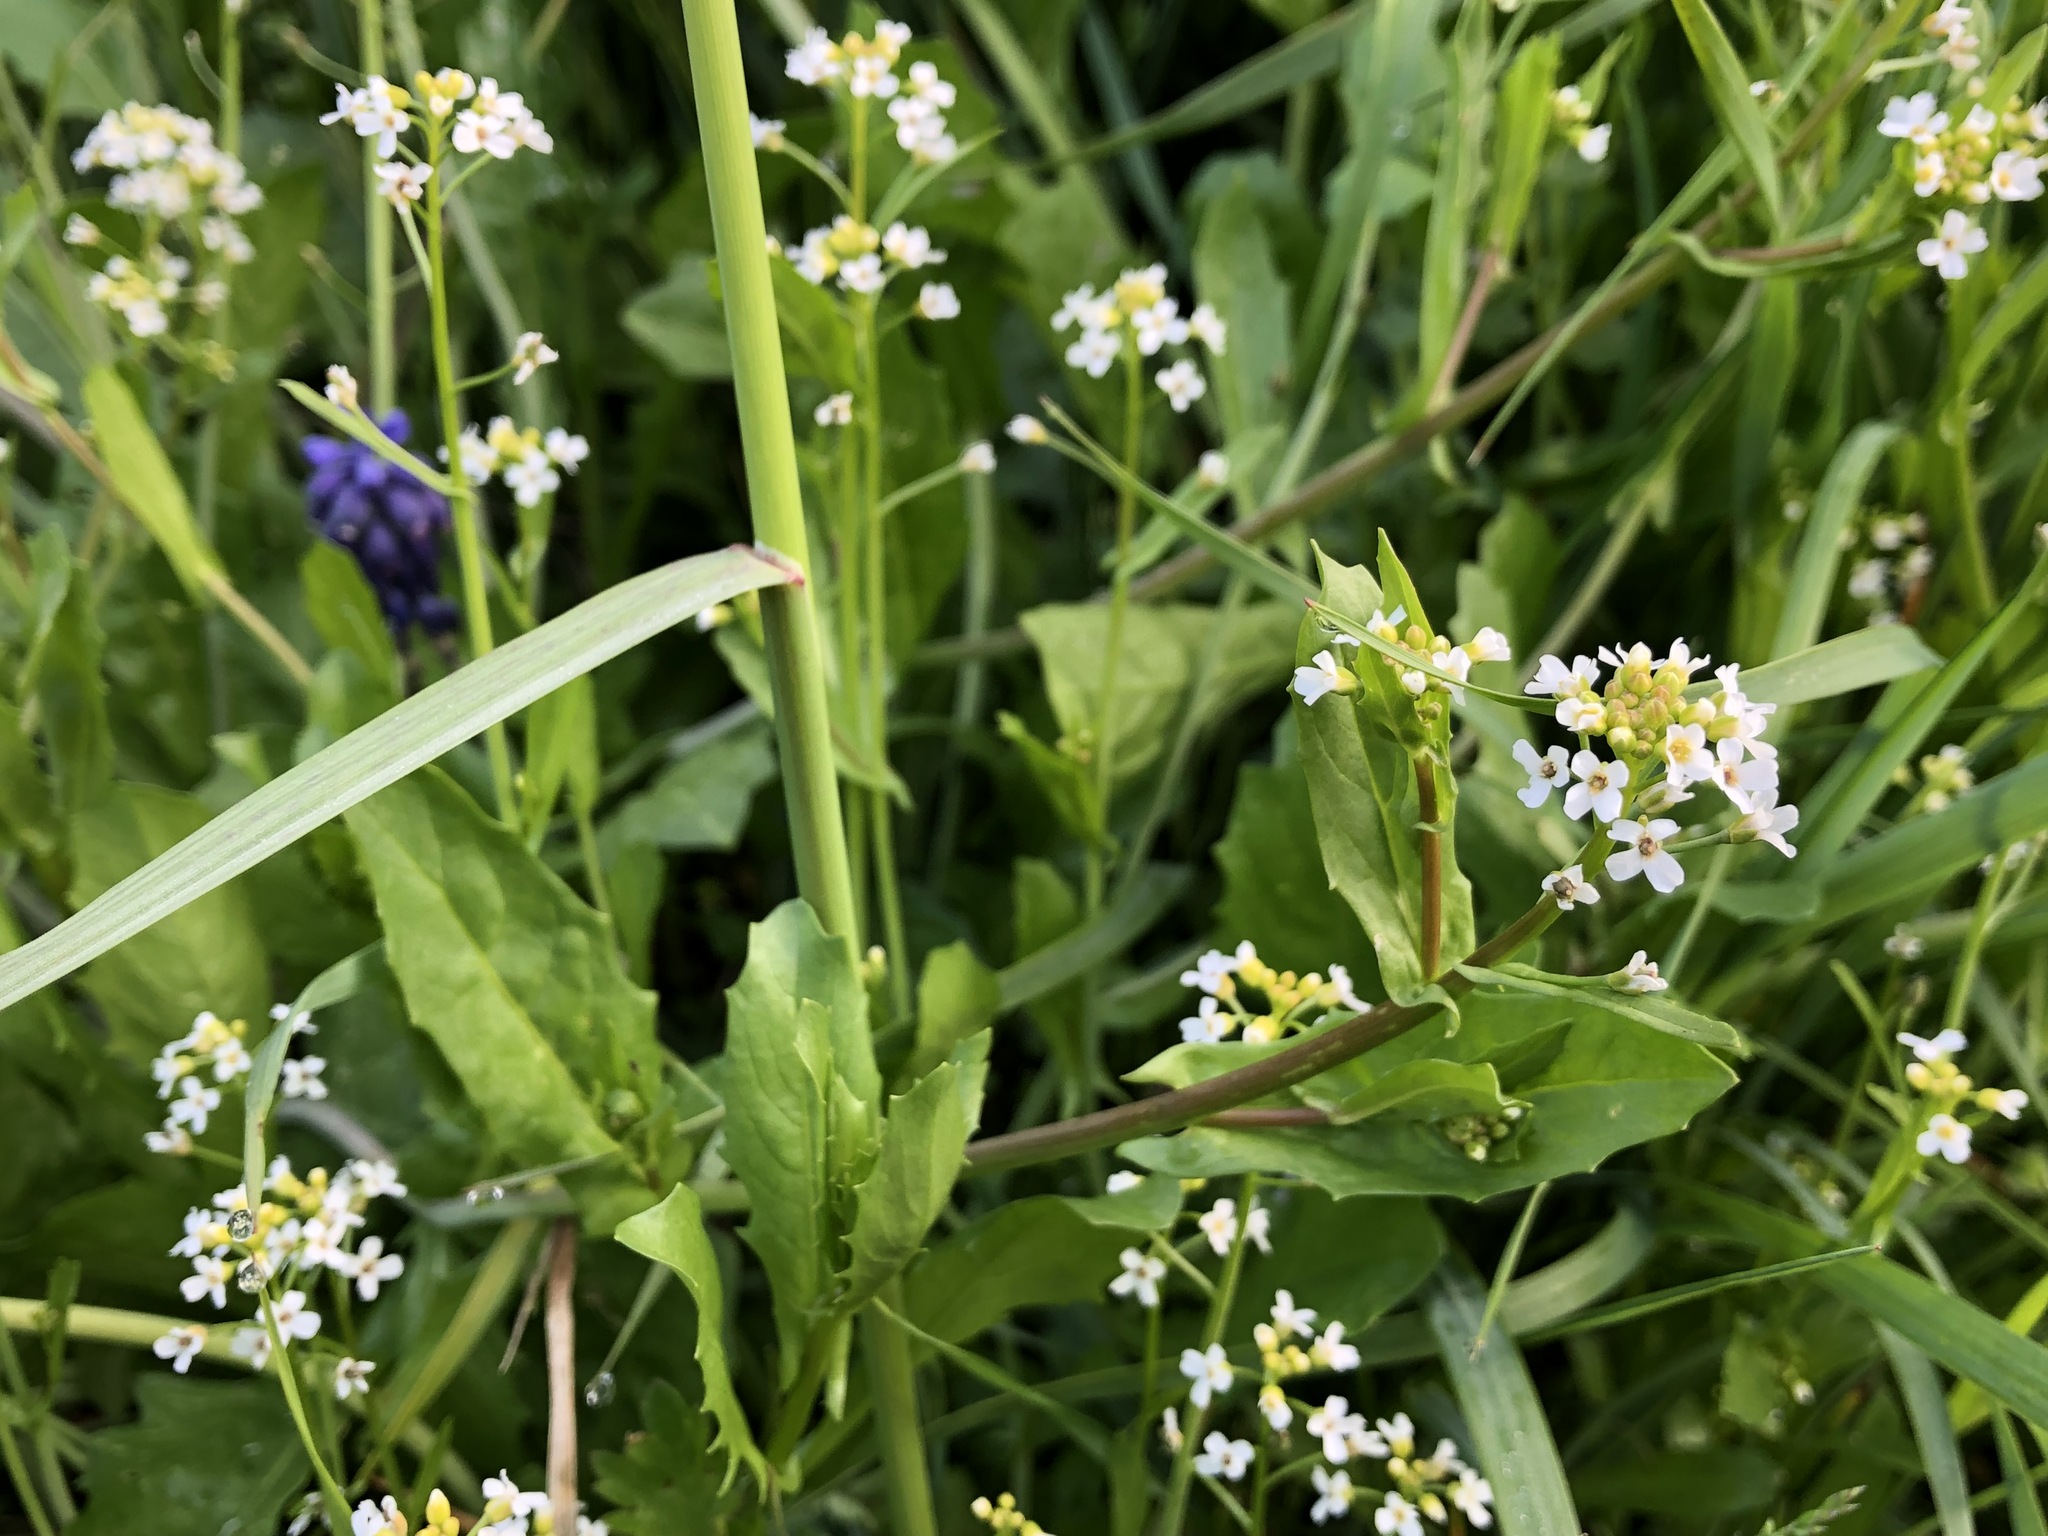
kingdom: Plantae
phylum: Tracheophyta
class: Magnoliopsida
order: Brassicales
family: Brassicaceae
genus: Calepina
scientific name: Calepina irregularis
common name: White ballmustard
